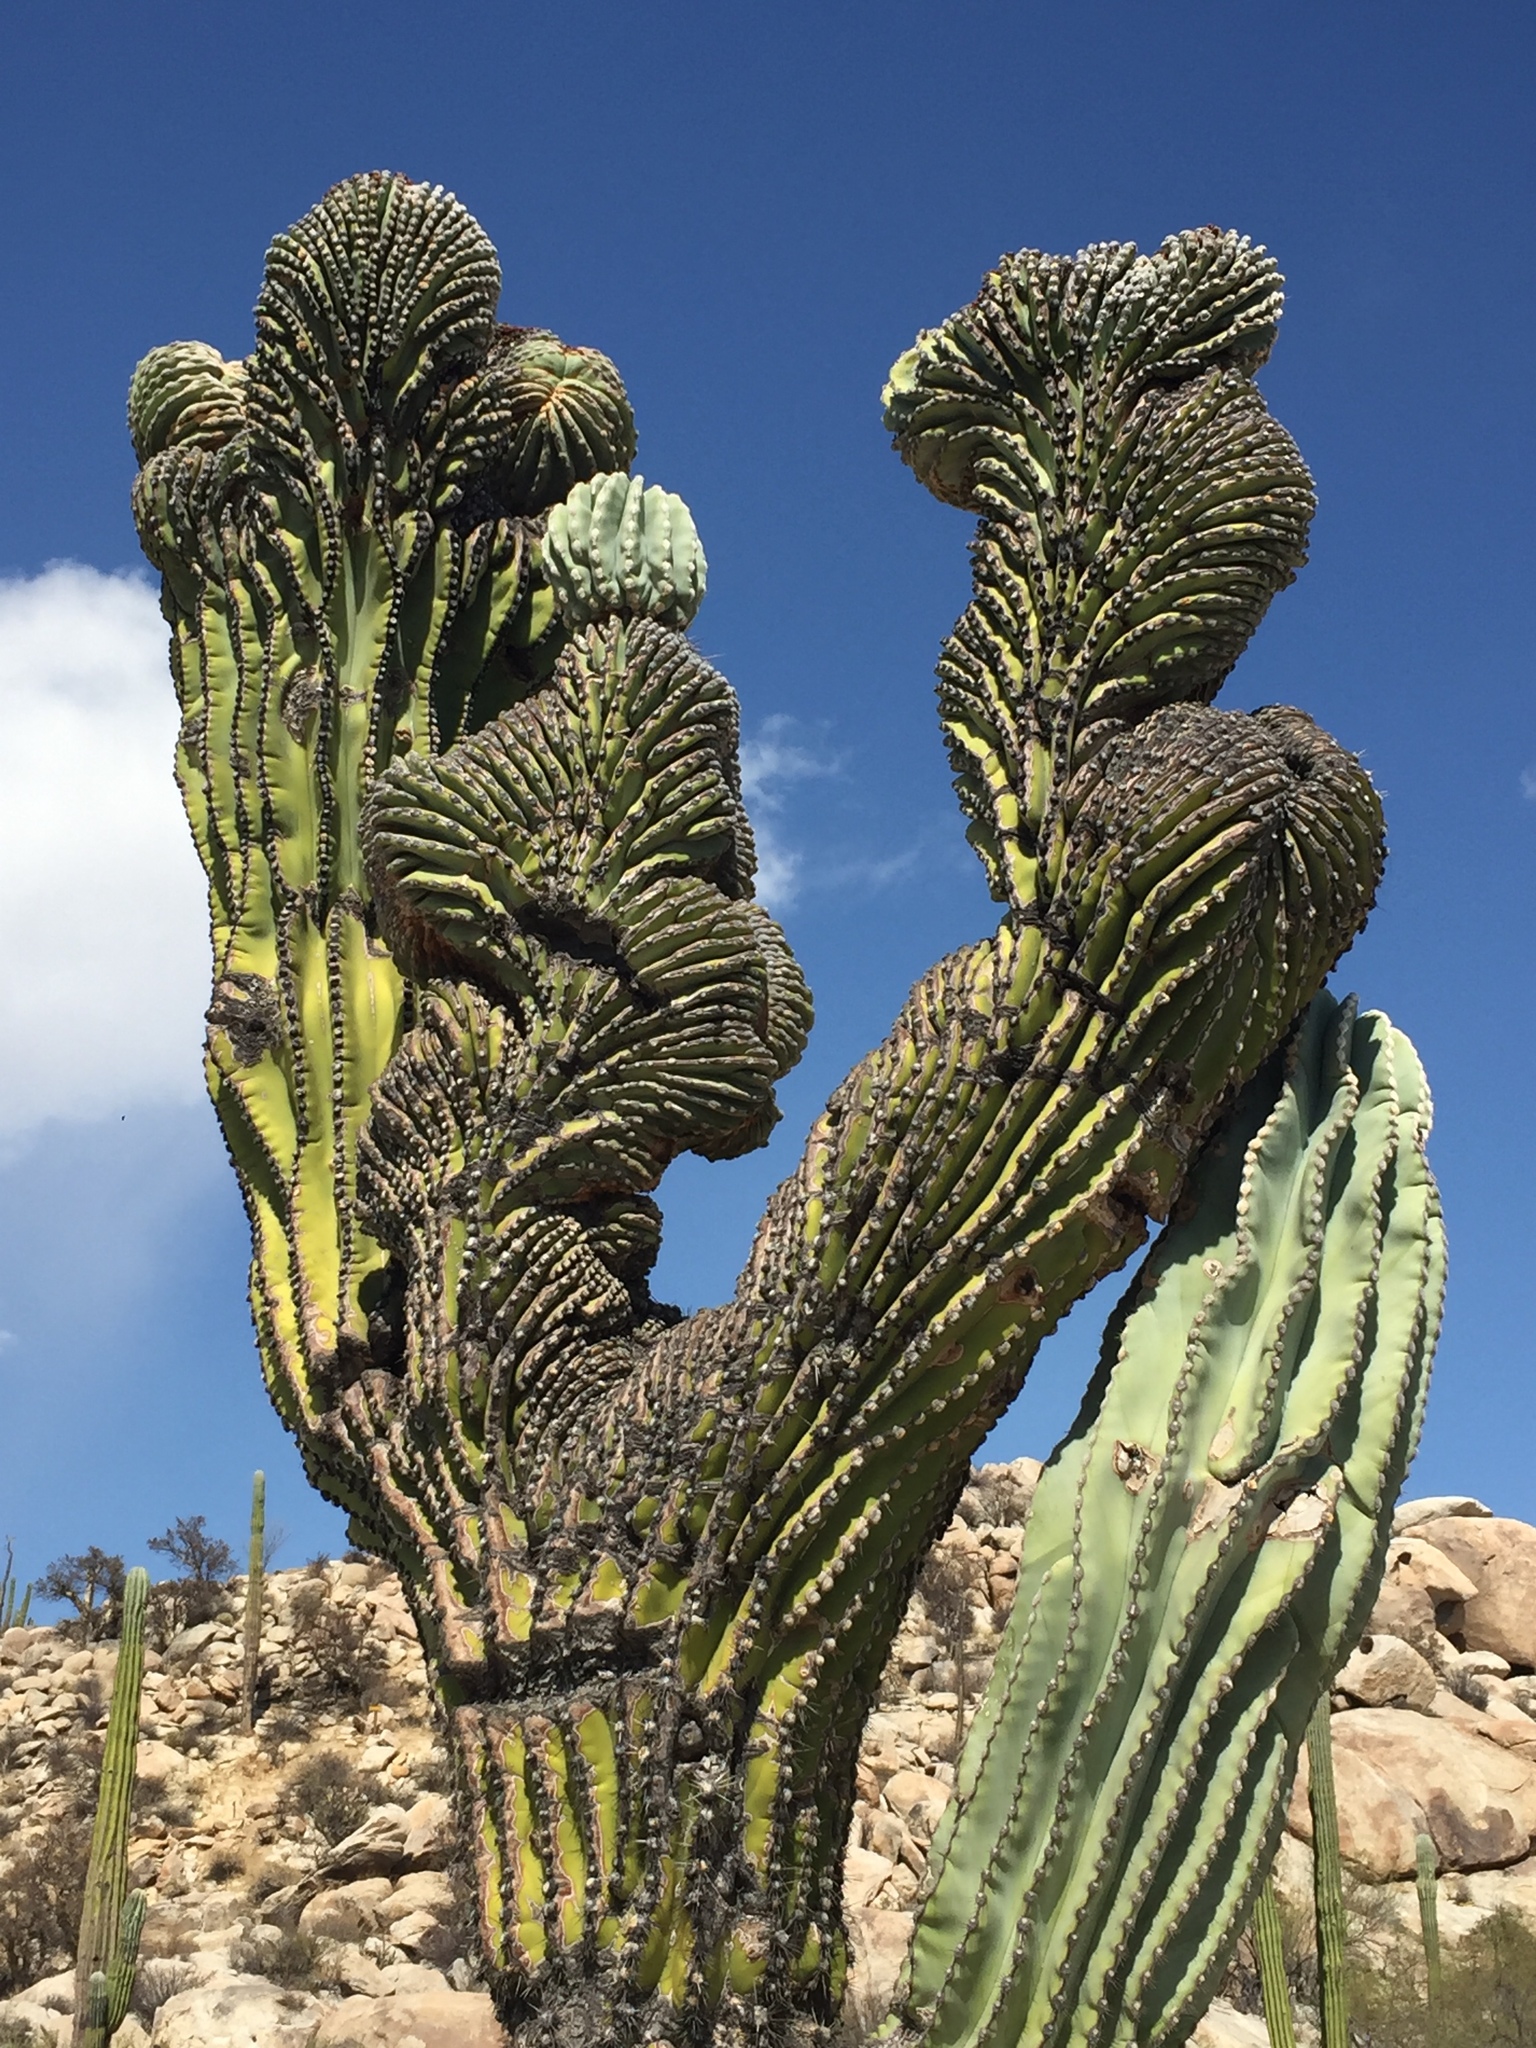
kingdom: Plantae
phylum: Tracheophyta
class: Magnoliopsida
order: Caryophyllales
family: Cactaceae
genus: Pachycereus
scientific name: Pachycereus pringlei
